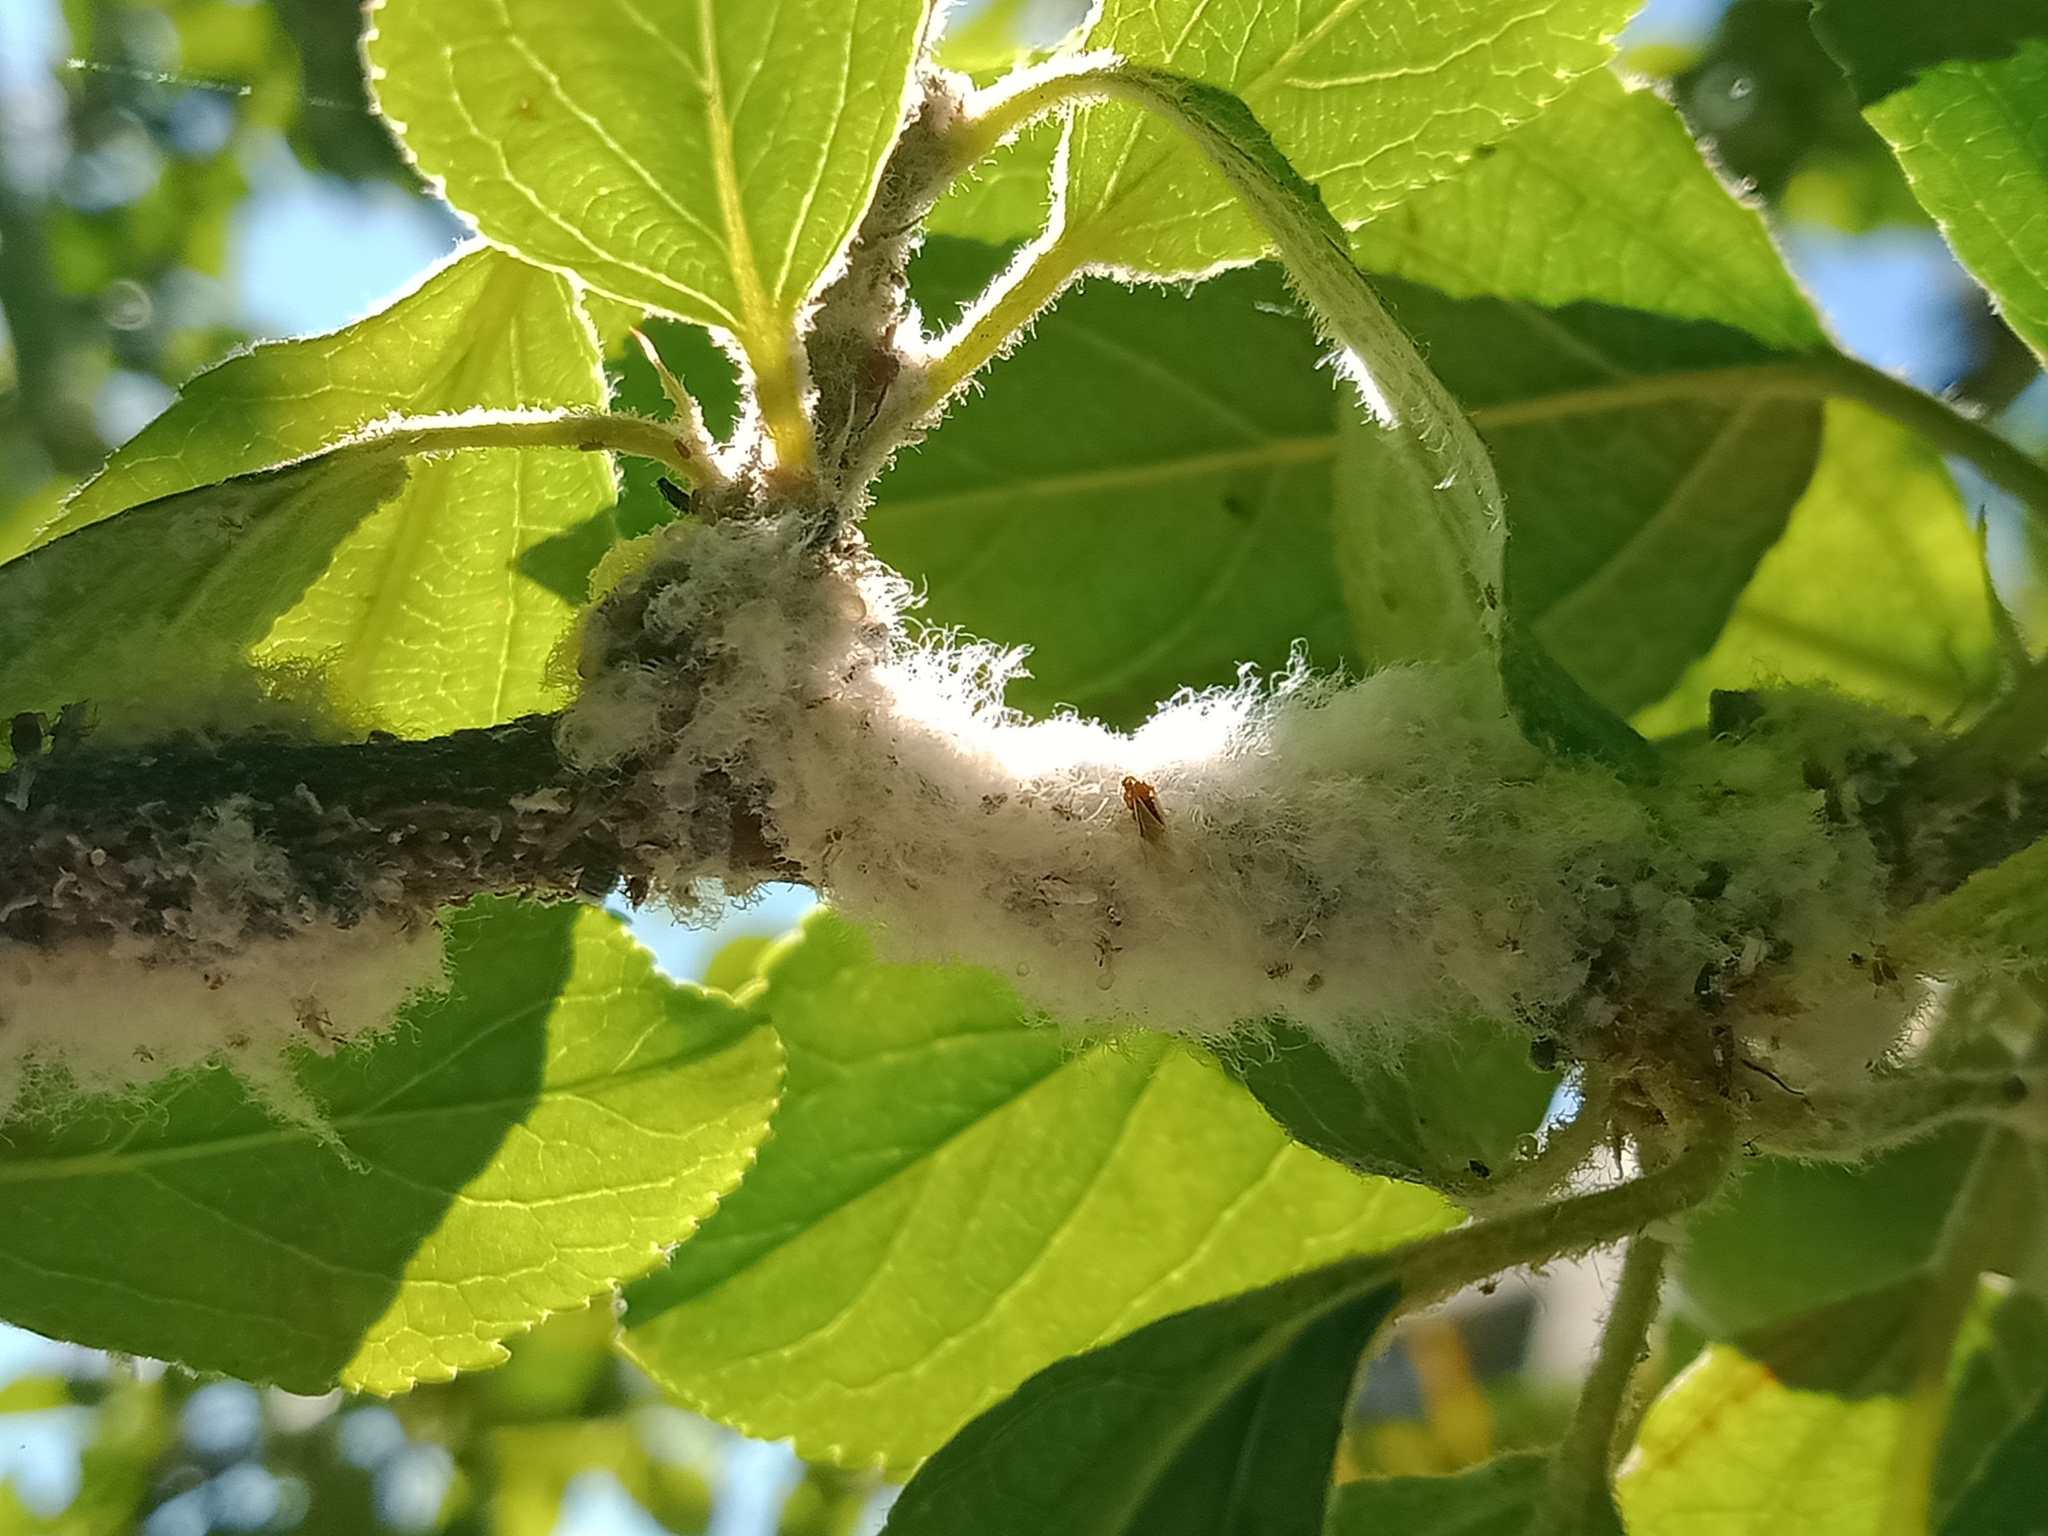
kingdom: Animalia
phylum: Arthropoda
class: Insecta
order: Hemiptera
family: Aphididae
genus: Eriosoma
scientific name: Eriosoma lanigerum
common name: Woolly apple aphid
